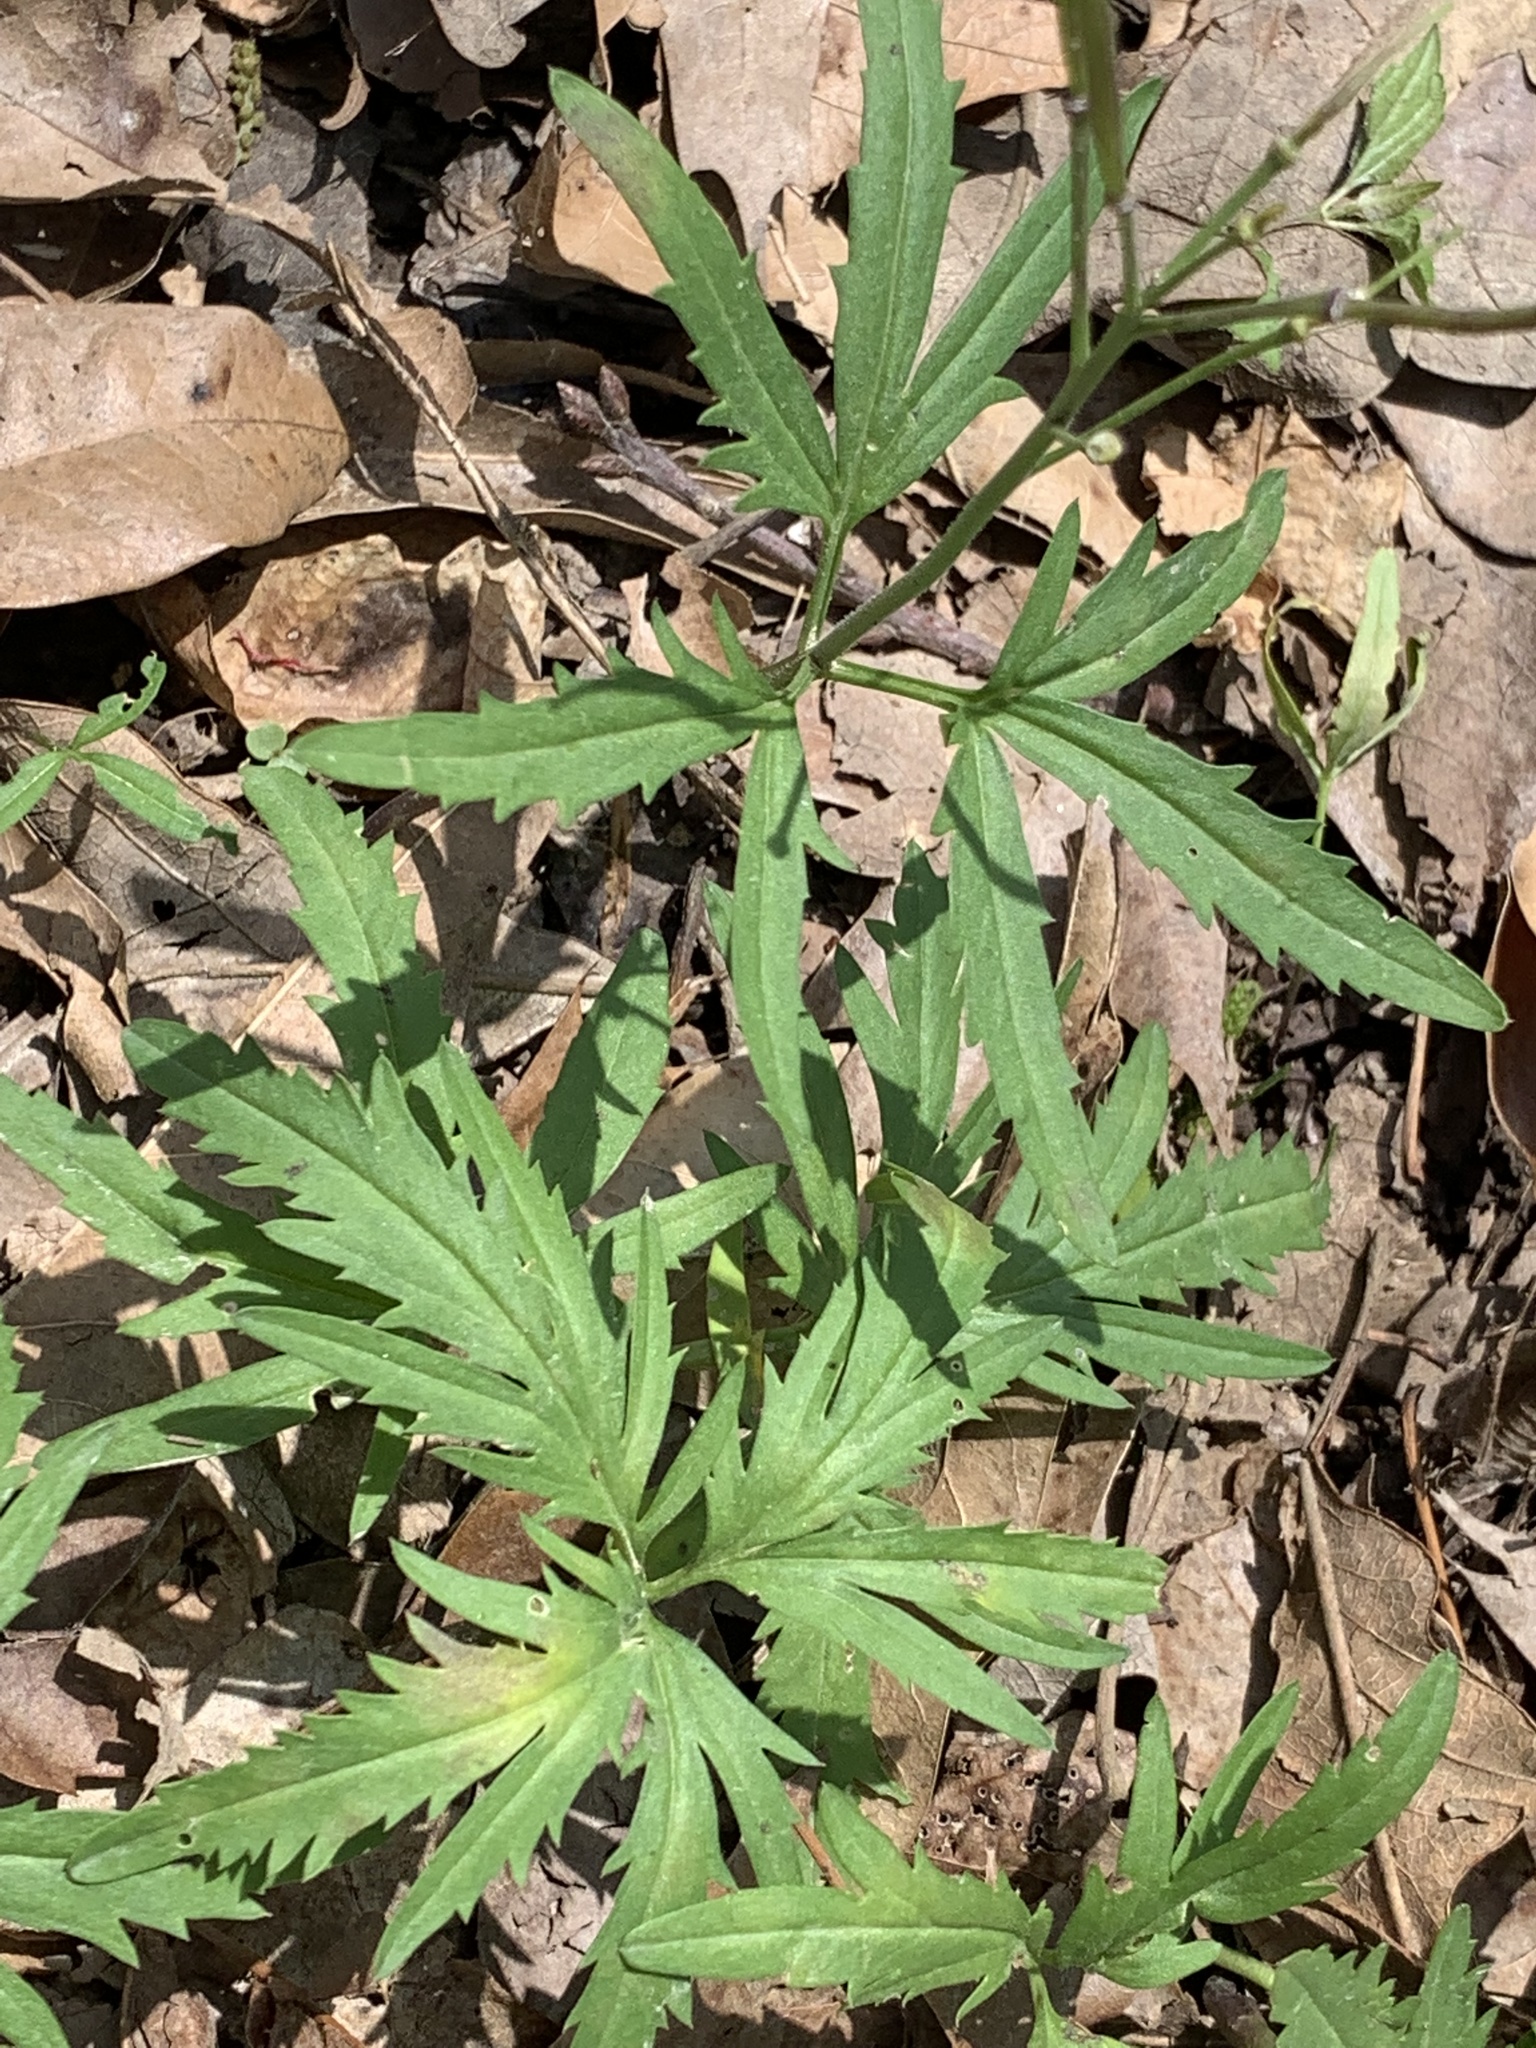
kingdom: Plantae
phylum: Tracheophyta
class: Magnoliopsida
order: Brassicales
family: Brassicaceae
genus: Cardamine
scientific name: Cardamine concatenata
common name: Cut-leaf toothcup
